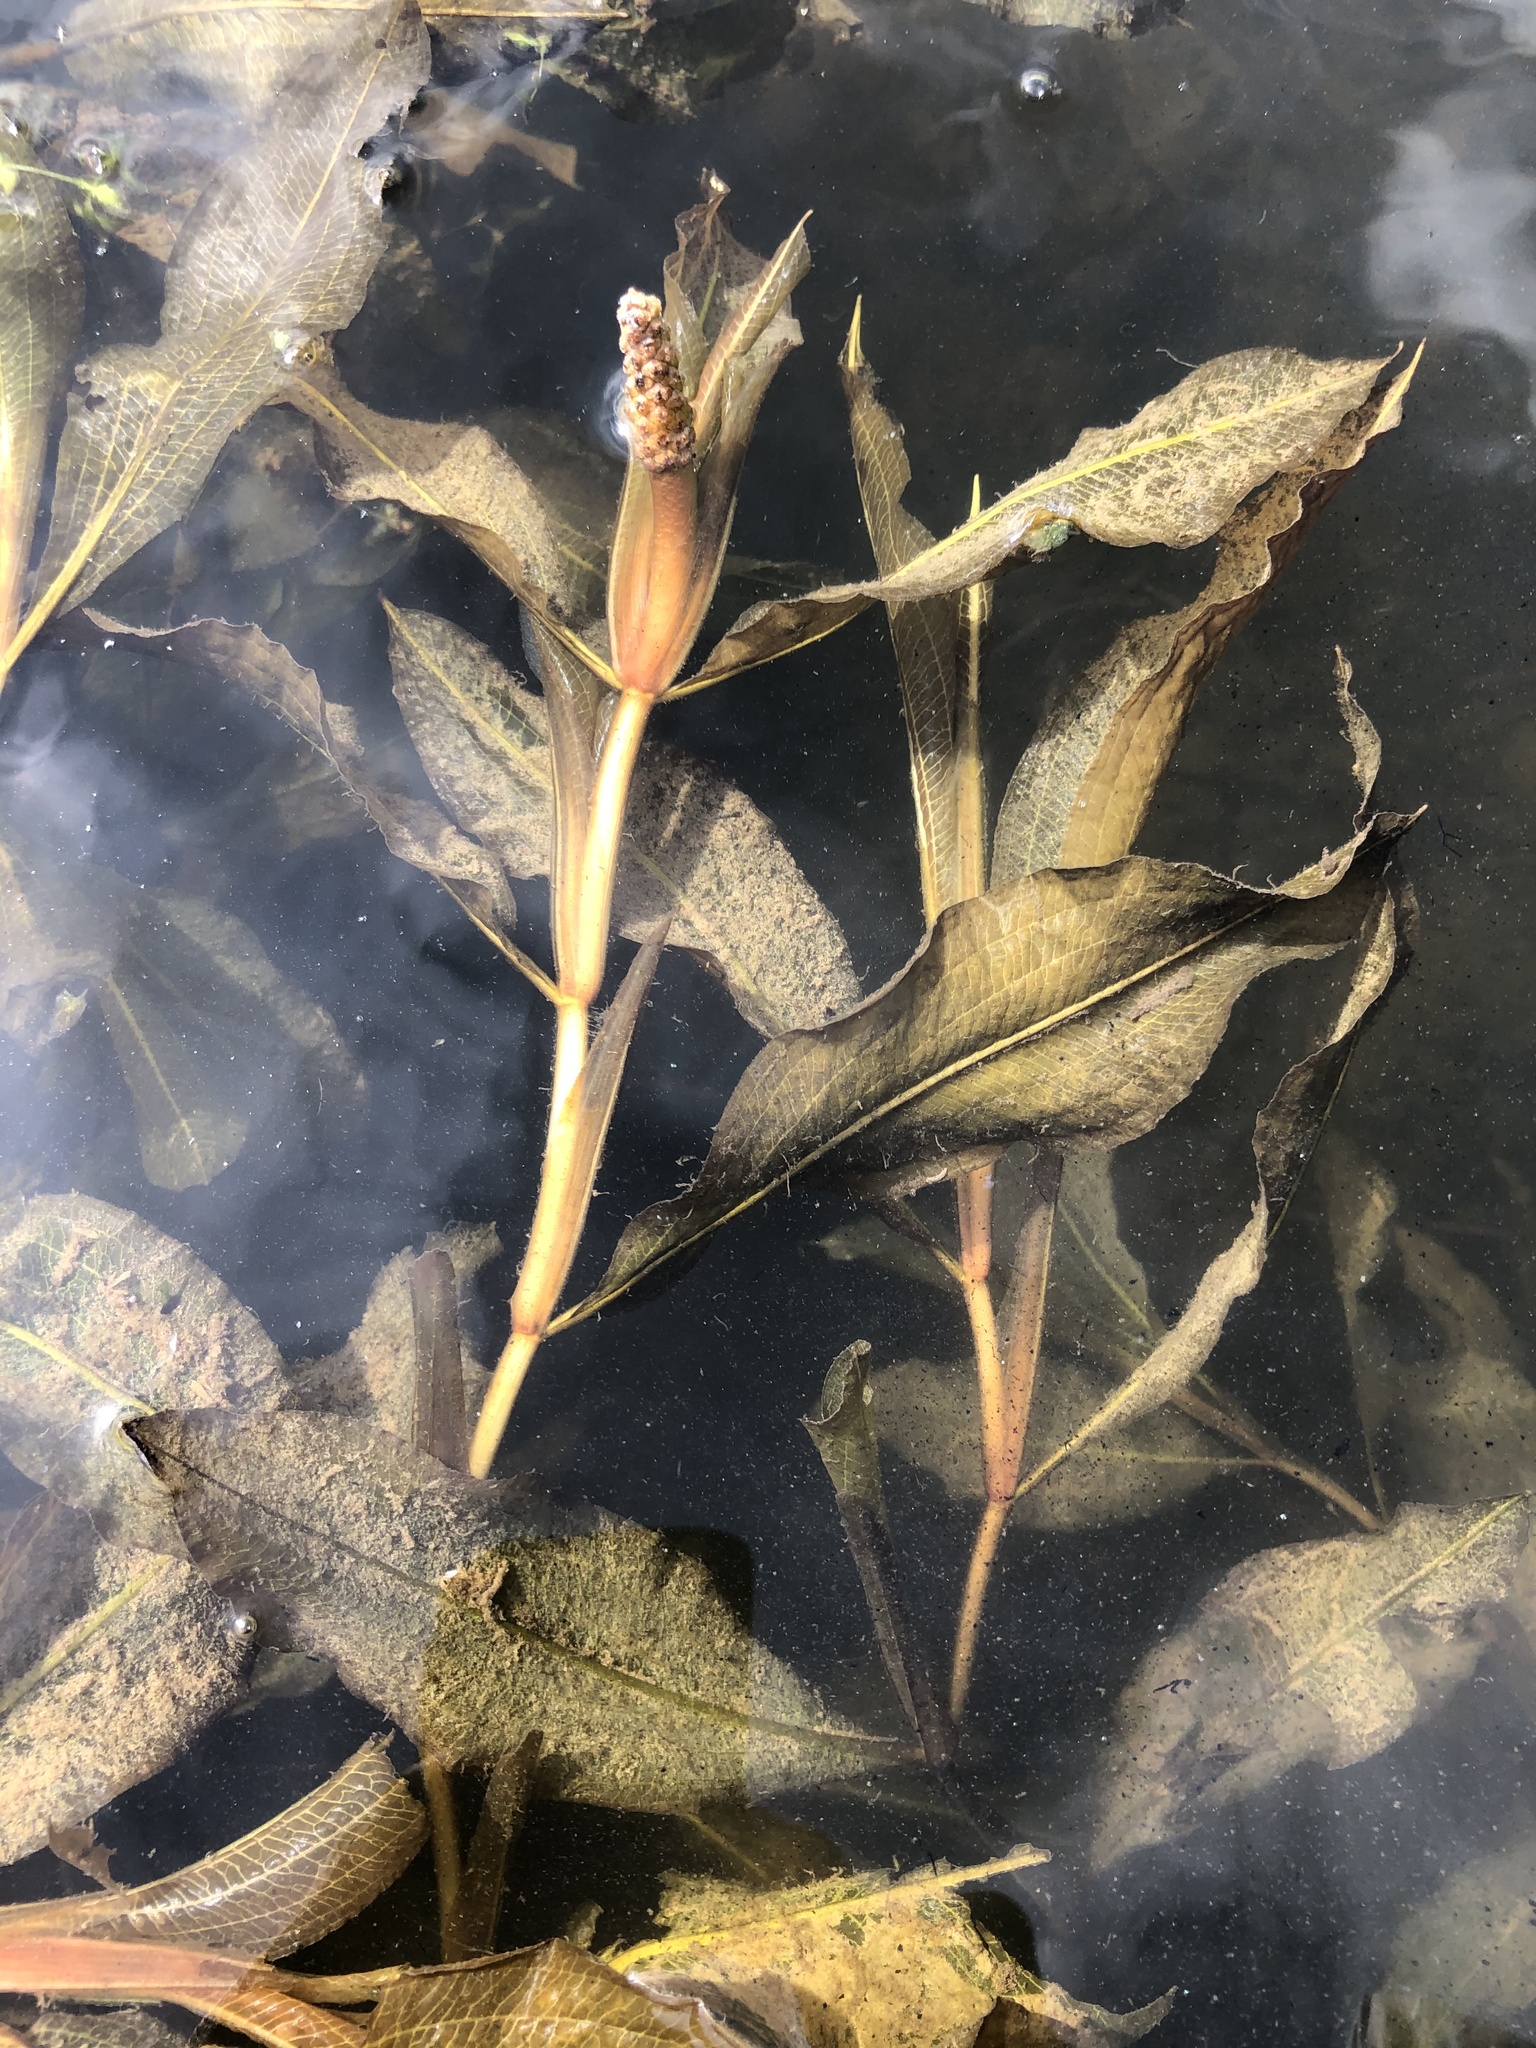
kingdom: Plantae
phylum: Tracheophyta
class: Liliopsida
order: Alismatales
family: Potamogetonaceae
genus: Potamogeton
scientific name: Potamogeton lucens
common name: Shining pondweed
